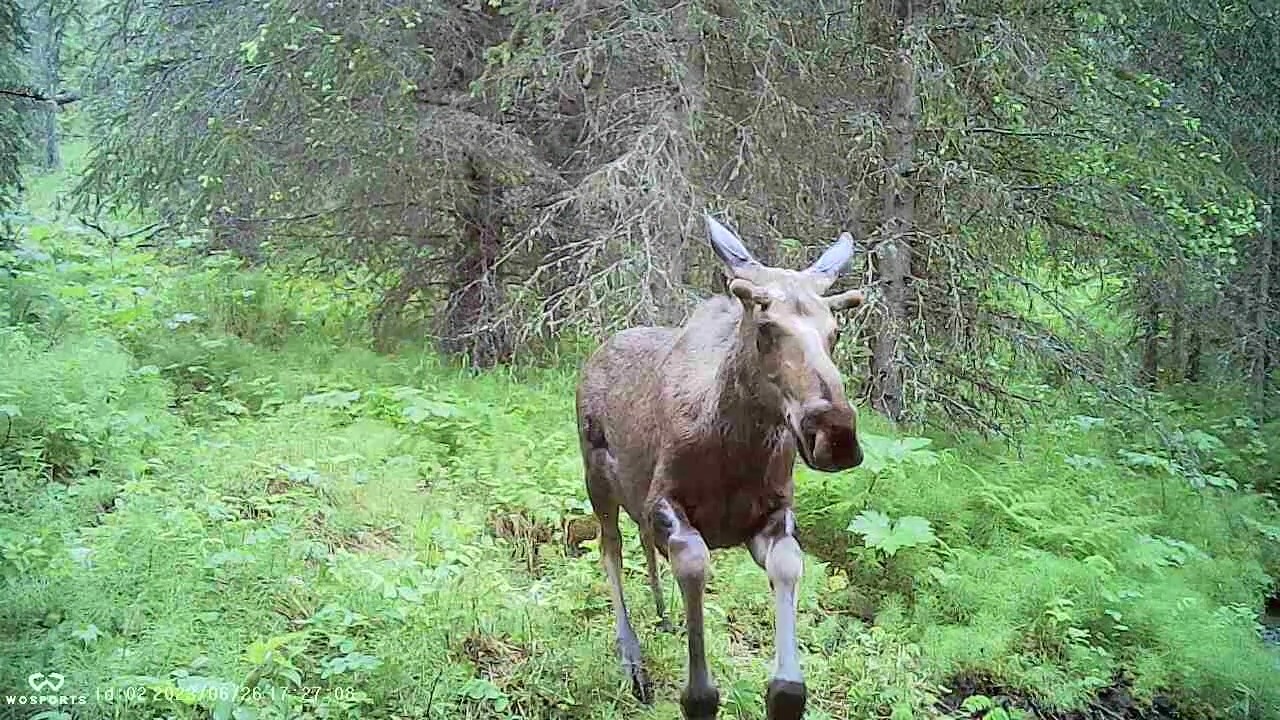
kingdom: Animalia
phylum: Chordata
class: Mammalia
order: Artiodactyla
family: Cervidae
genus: Alces
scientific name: Alces alces
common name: Moose
